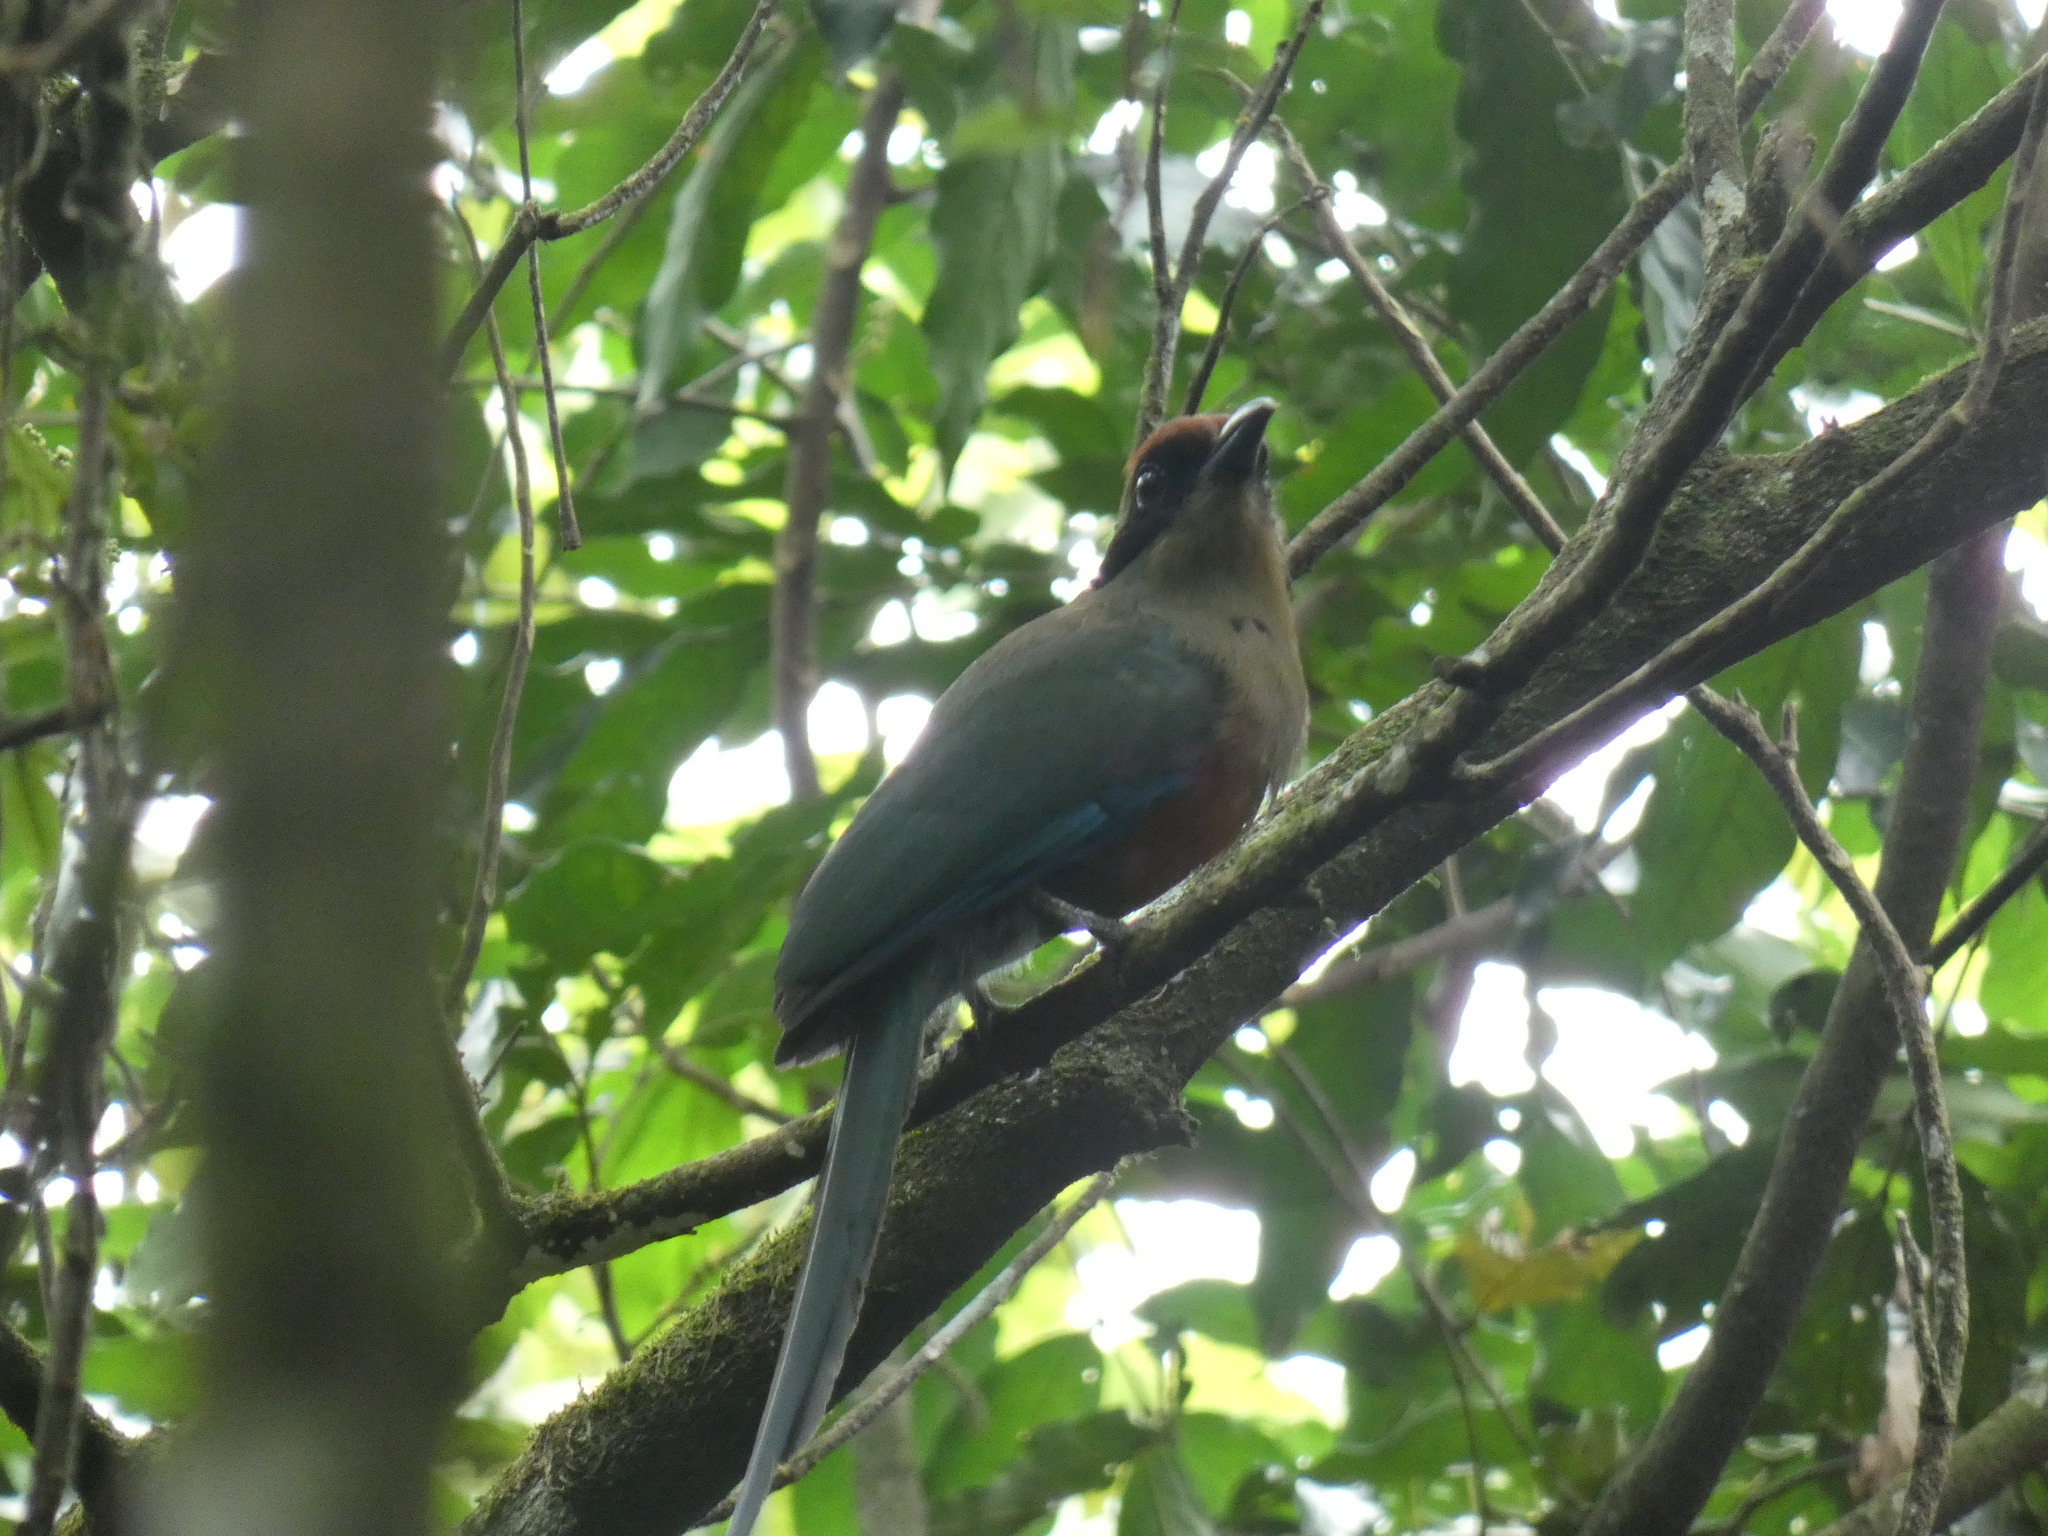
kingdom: Animalia
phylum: Chordata
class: Aves
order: Coraciiformes
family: Momotidae
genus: Baryphthengus
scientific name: Baryphthengus ruficapillus
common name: Rufous-capped motmot
